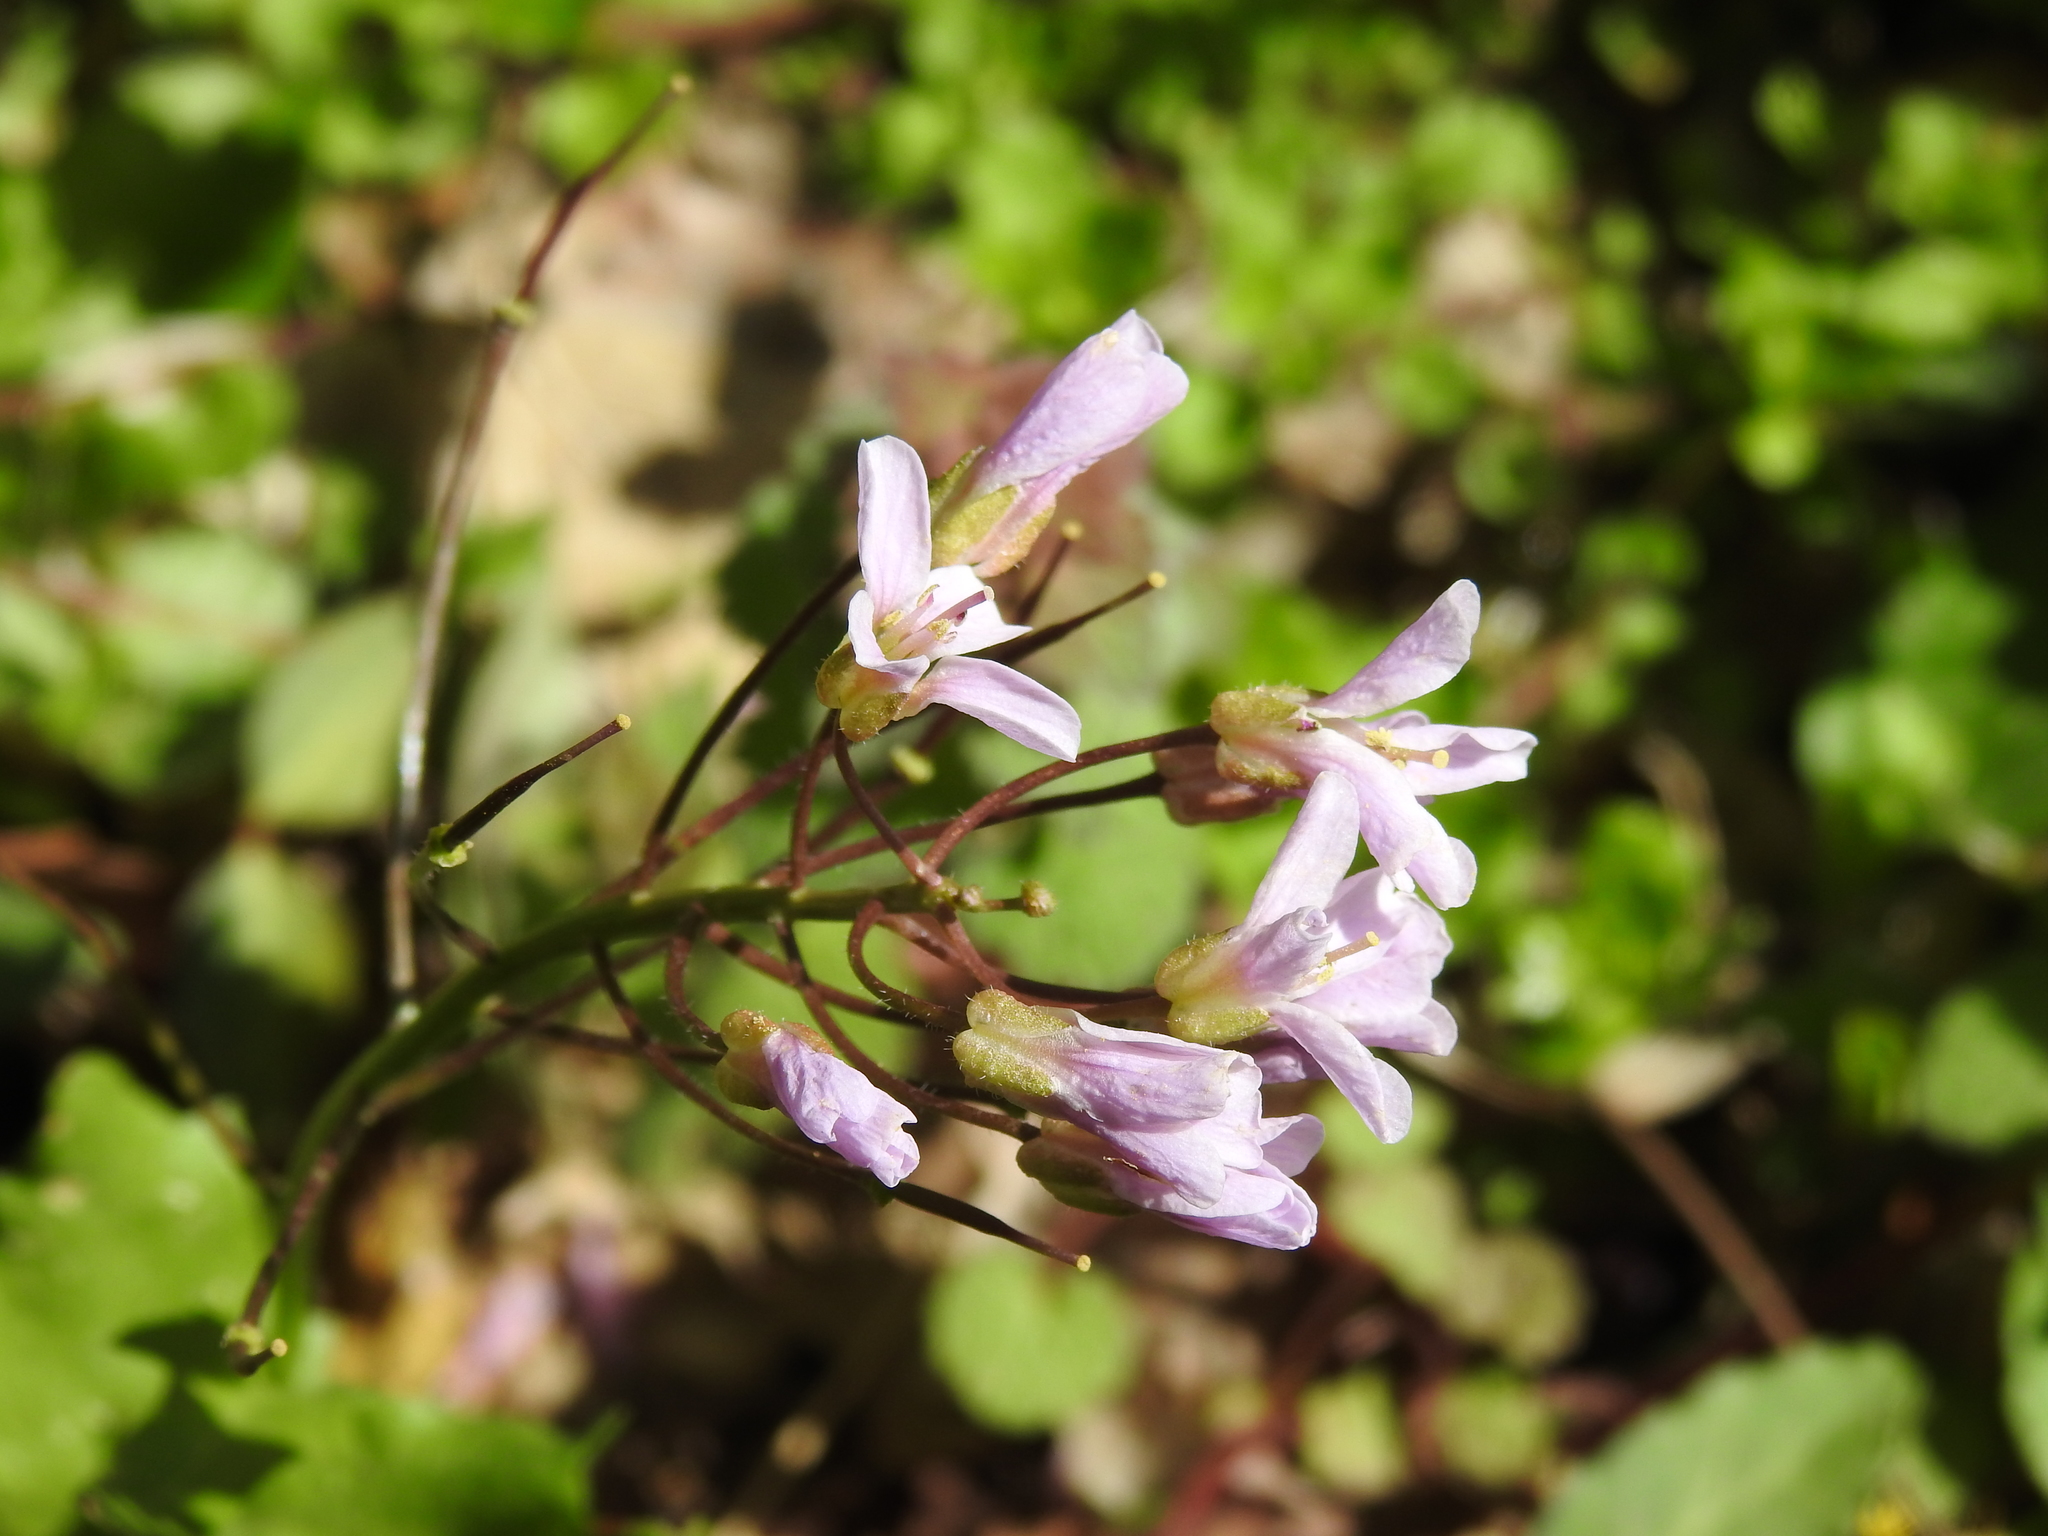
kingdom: Plantae
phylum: Tracheophyta
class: Magnoliopsida
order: Brassicales
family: Brassicaceae
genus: Cardamine
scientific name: Cardamine douglassii
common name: Purple cress
